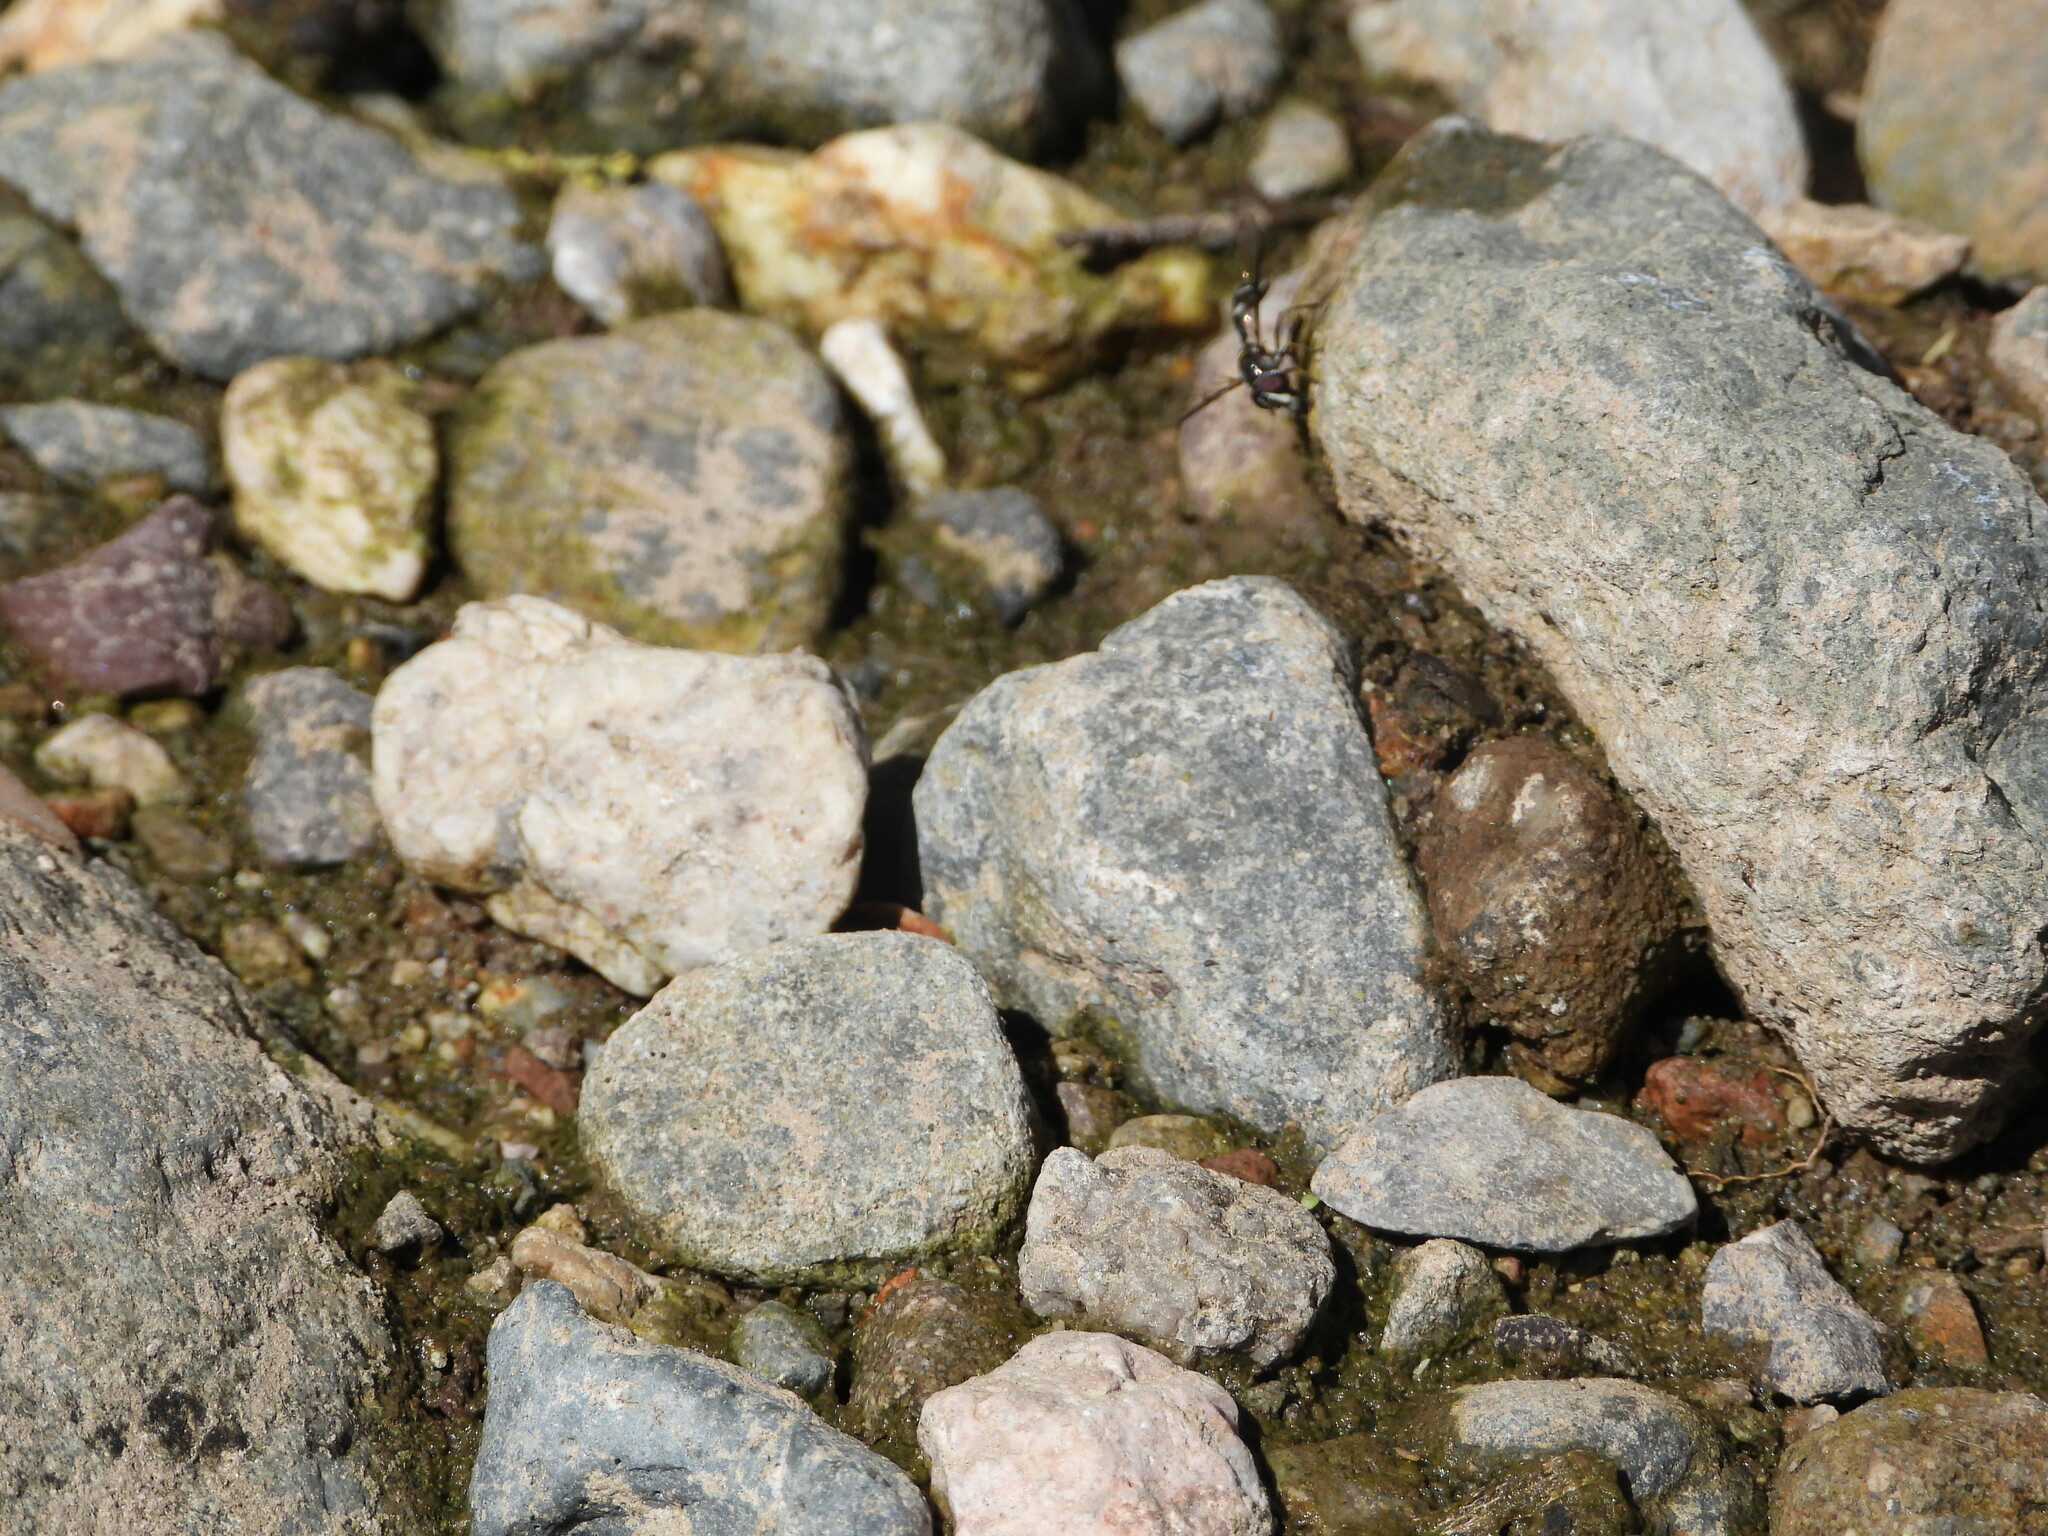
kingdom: Animalia
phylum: Arthropoda
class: Insecta
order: Diptera
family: Syrphidae
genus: Dioprosopa
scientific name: Dioprosopa clavatus
